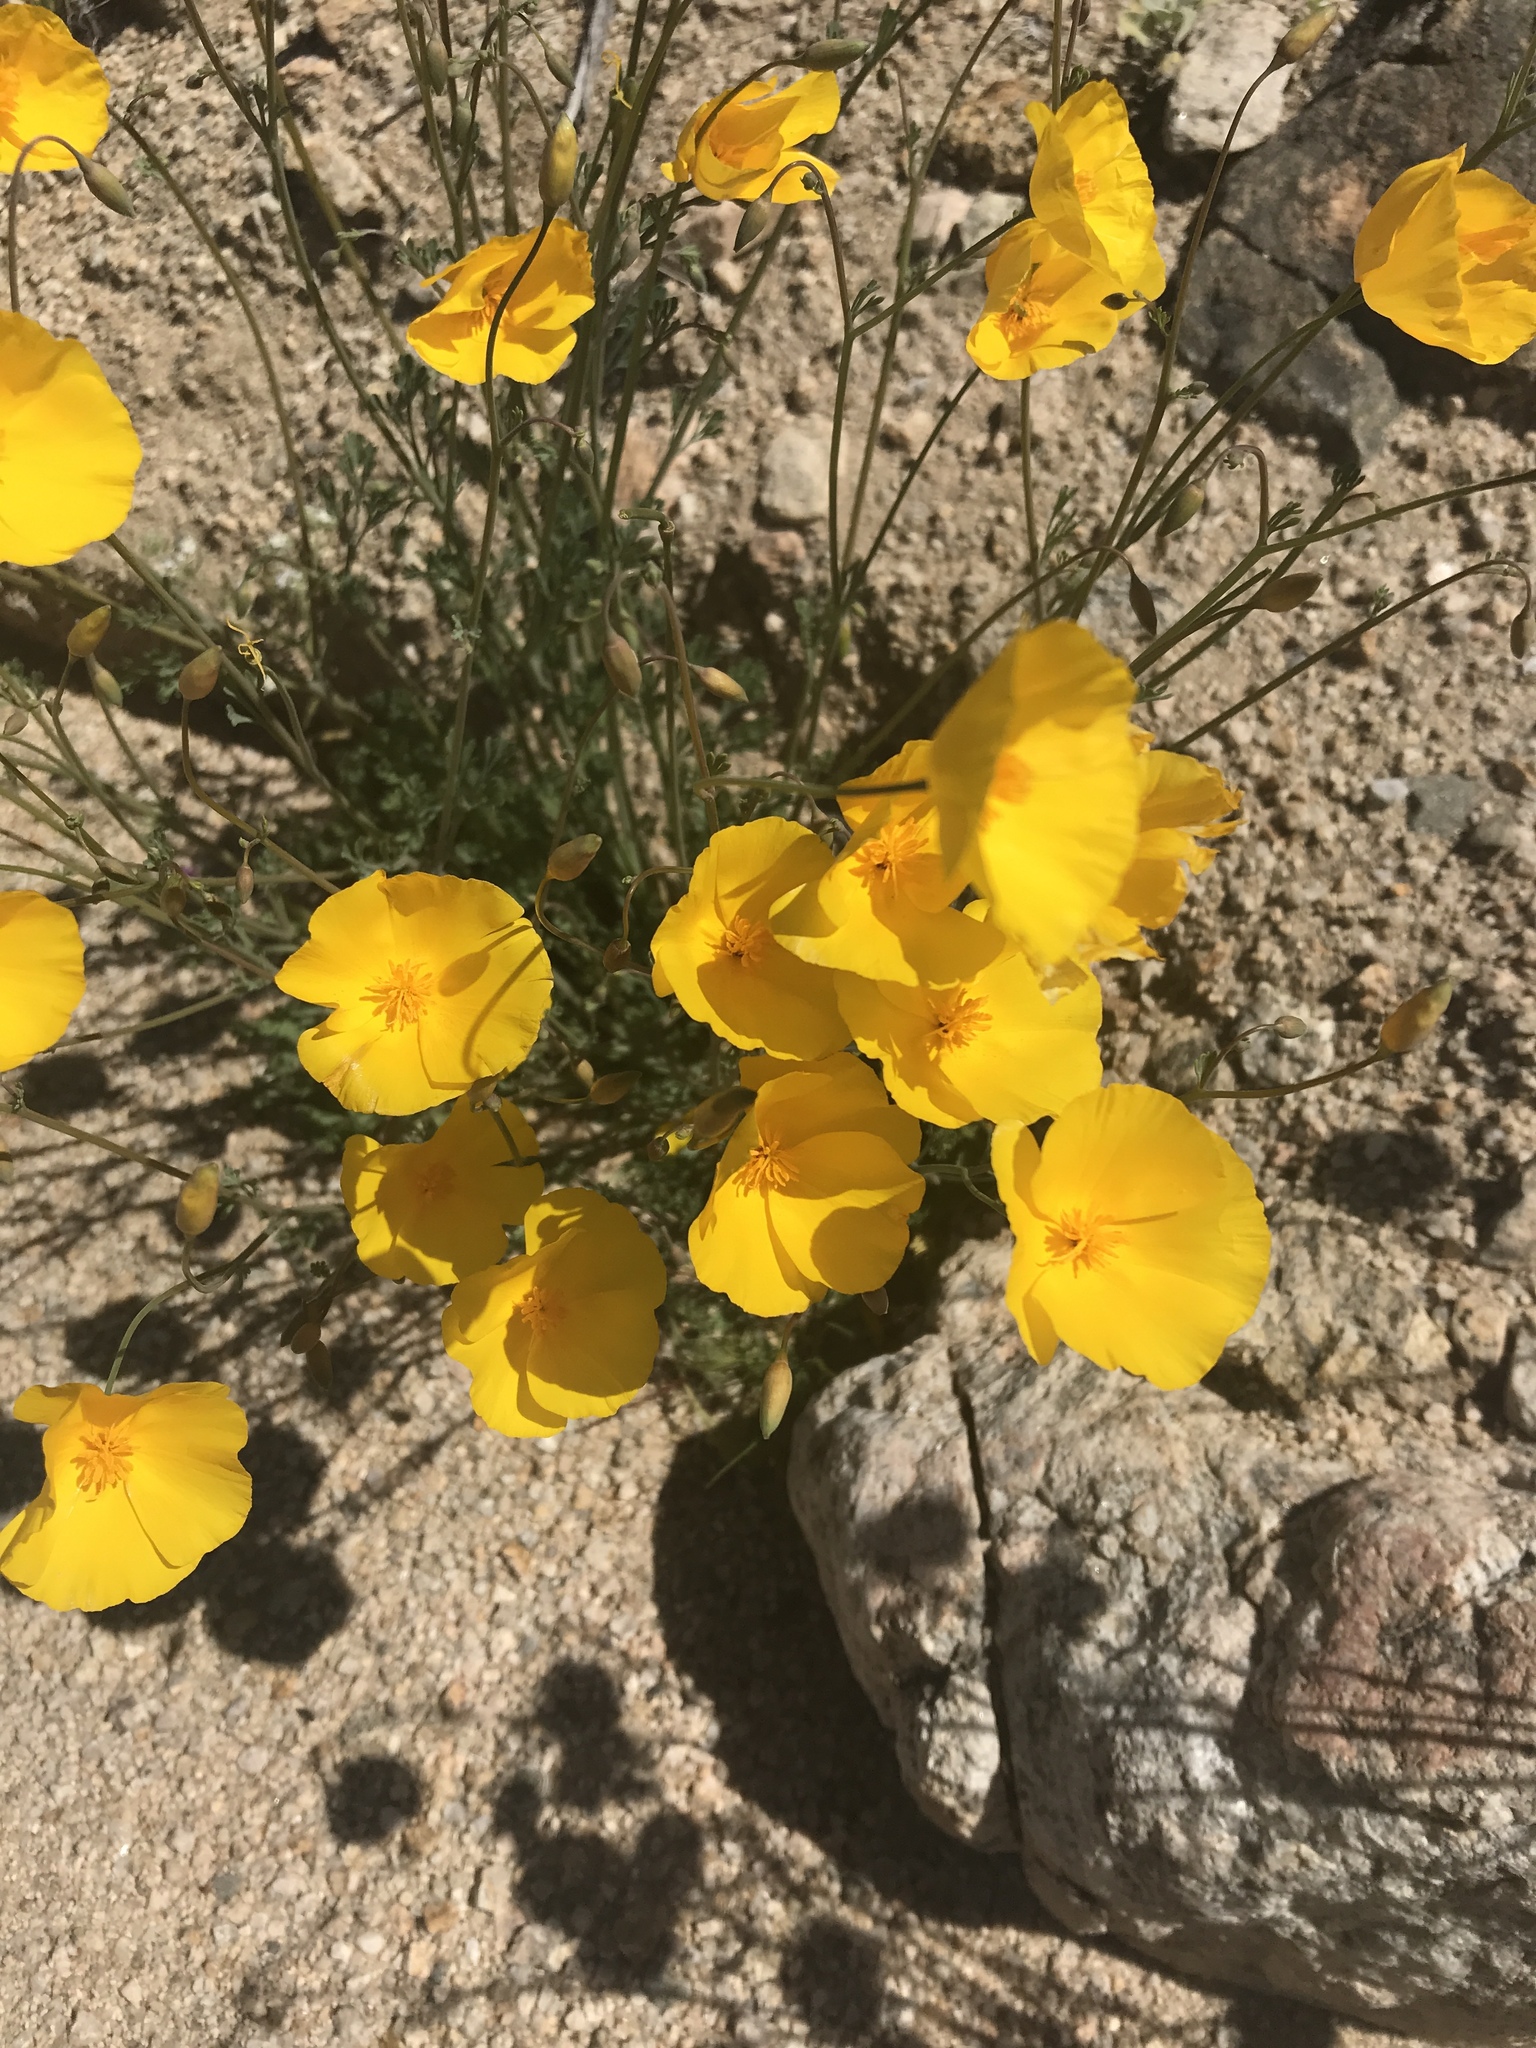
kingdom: Plantae
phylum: Tracheophyta
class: Magnoliopsida
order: Ranunculales
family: Papaveraceae
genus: Eschscholzia
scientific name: Eschscholzia parishii
